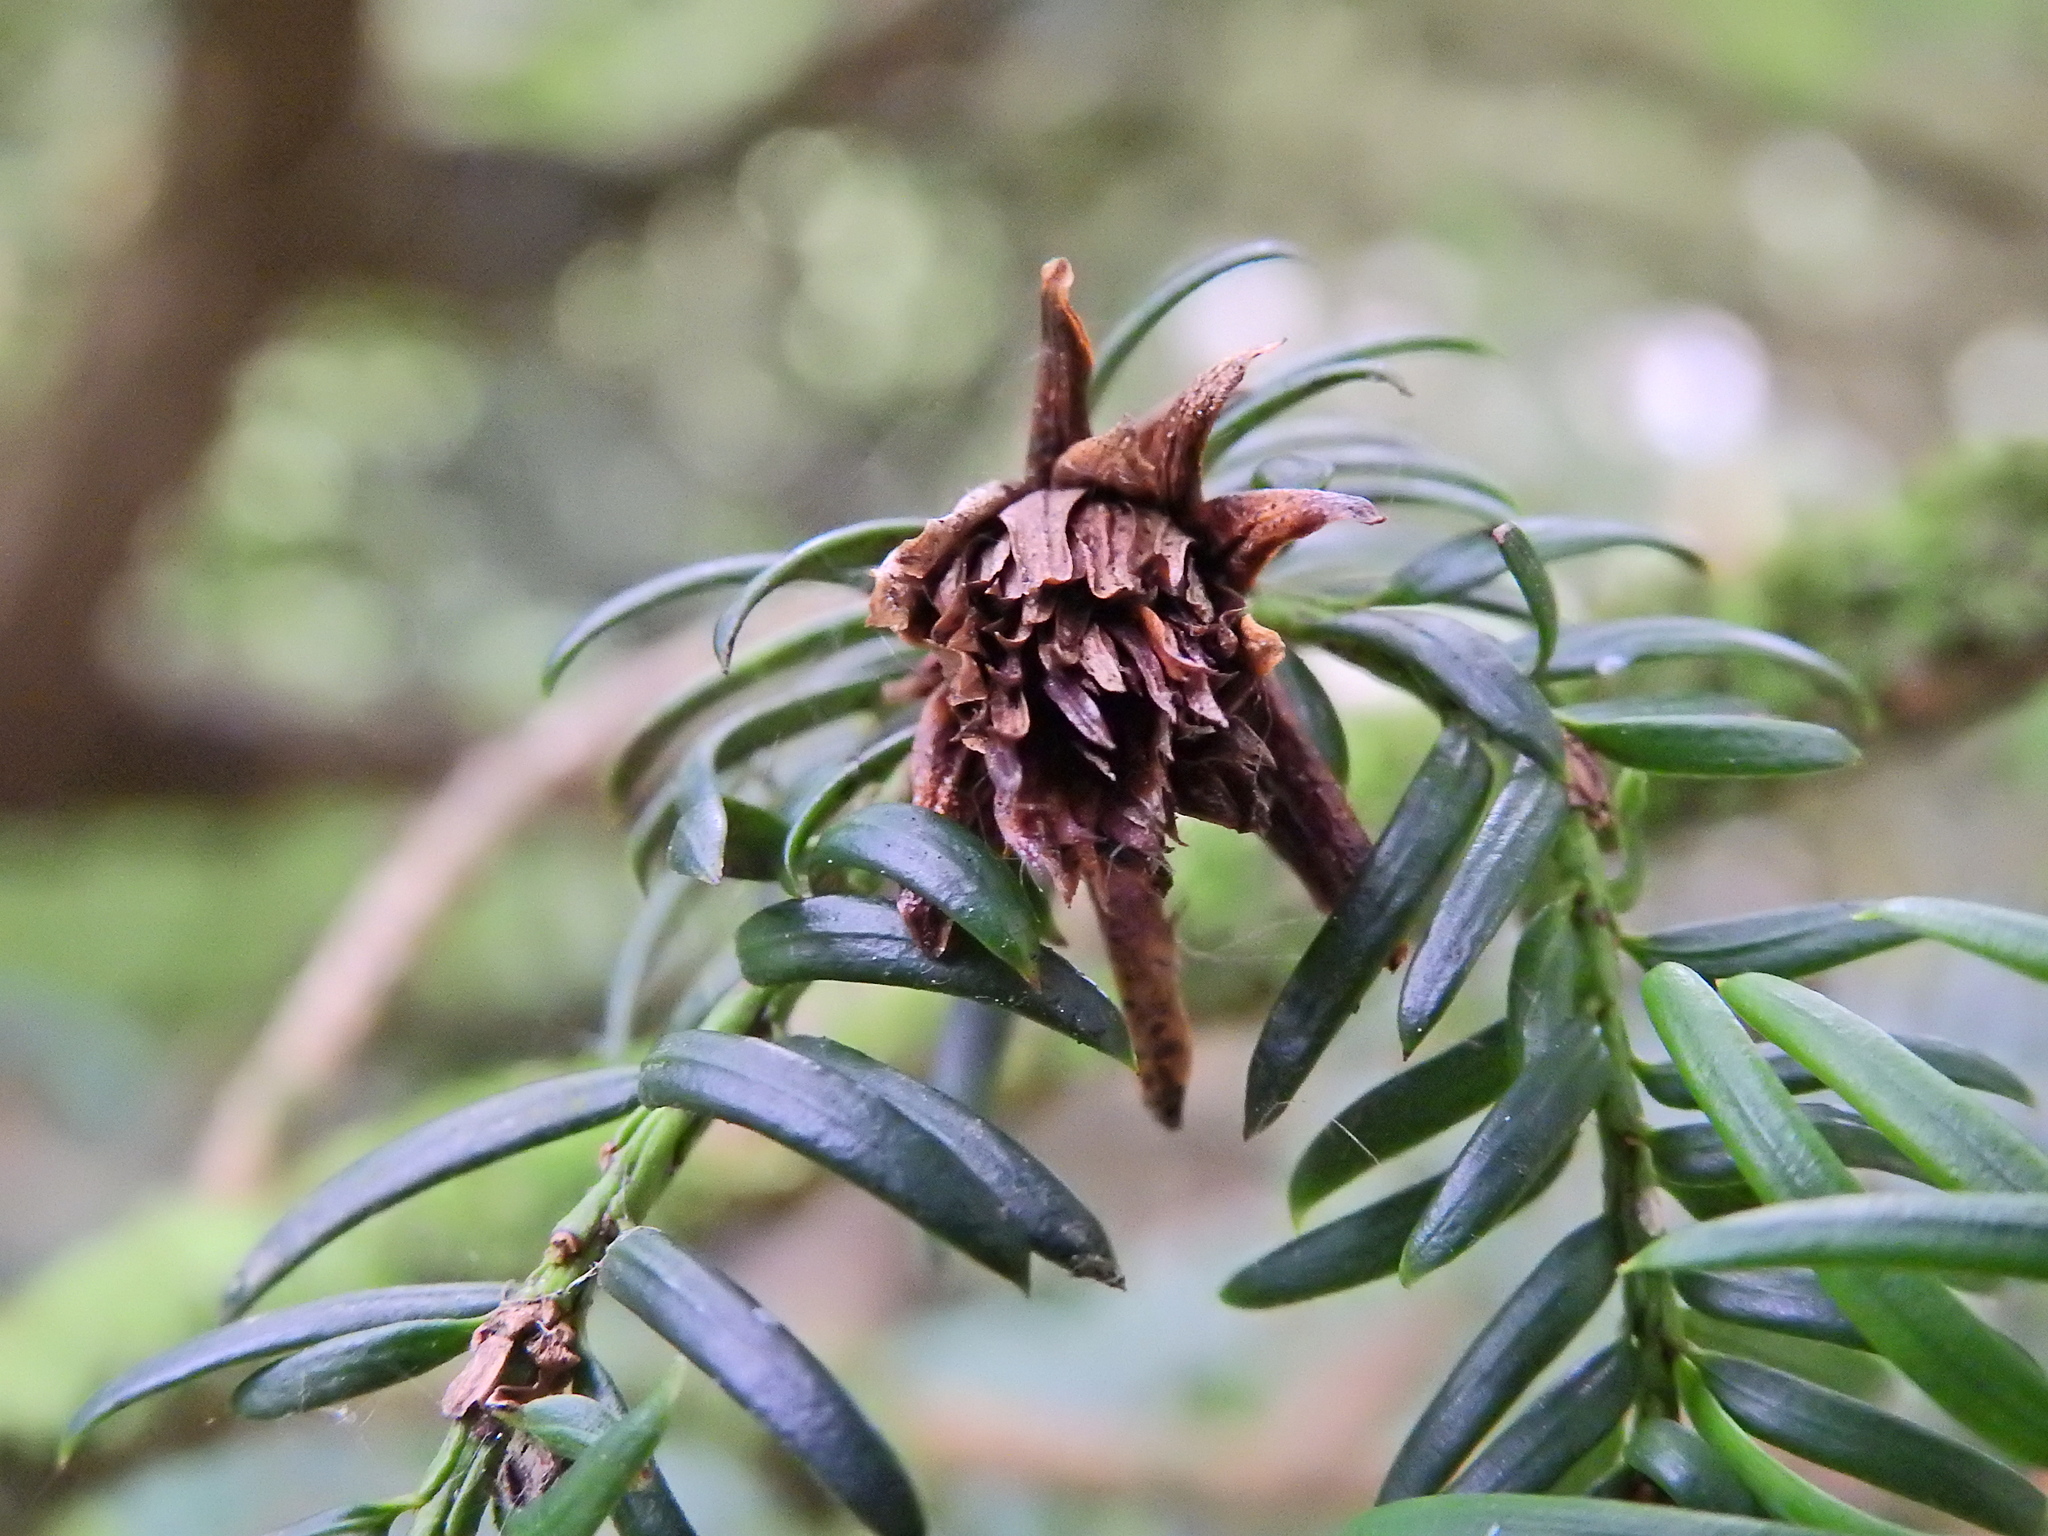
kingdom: Animalia
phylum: Arthropoda
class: Insecta
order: Diptera
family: Cecidomyiidae
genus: Taxomyia
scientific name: Taxomyia taxi
